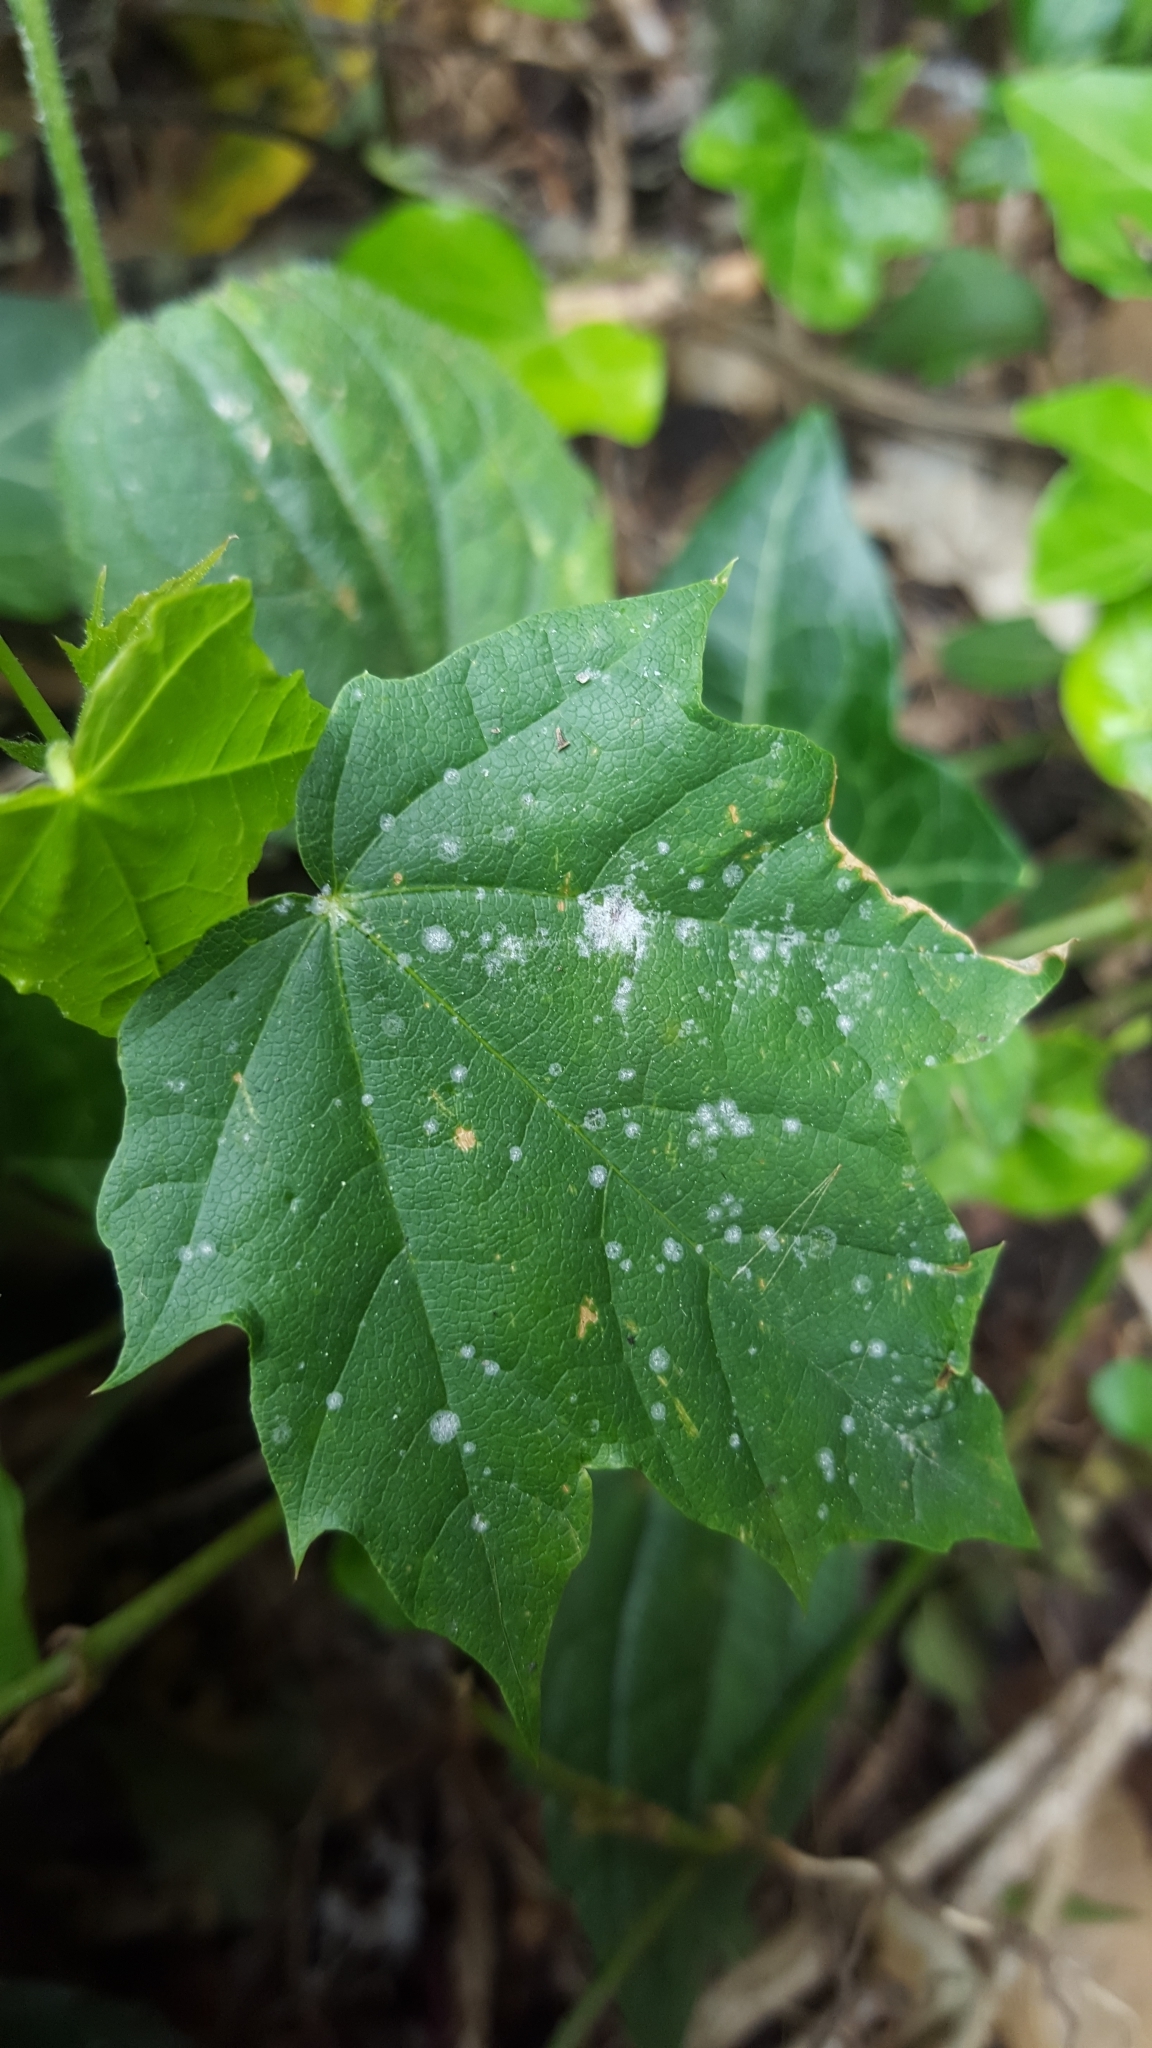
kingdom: Fungi
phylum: Ascomycota
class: Leotiomycetes
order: Helotiales
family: Erysiphaceae
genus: Sawadaea
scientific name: Sawadaea tulasnei
